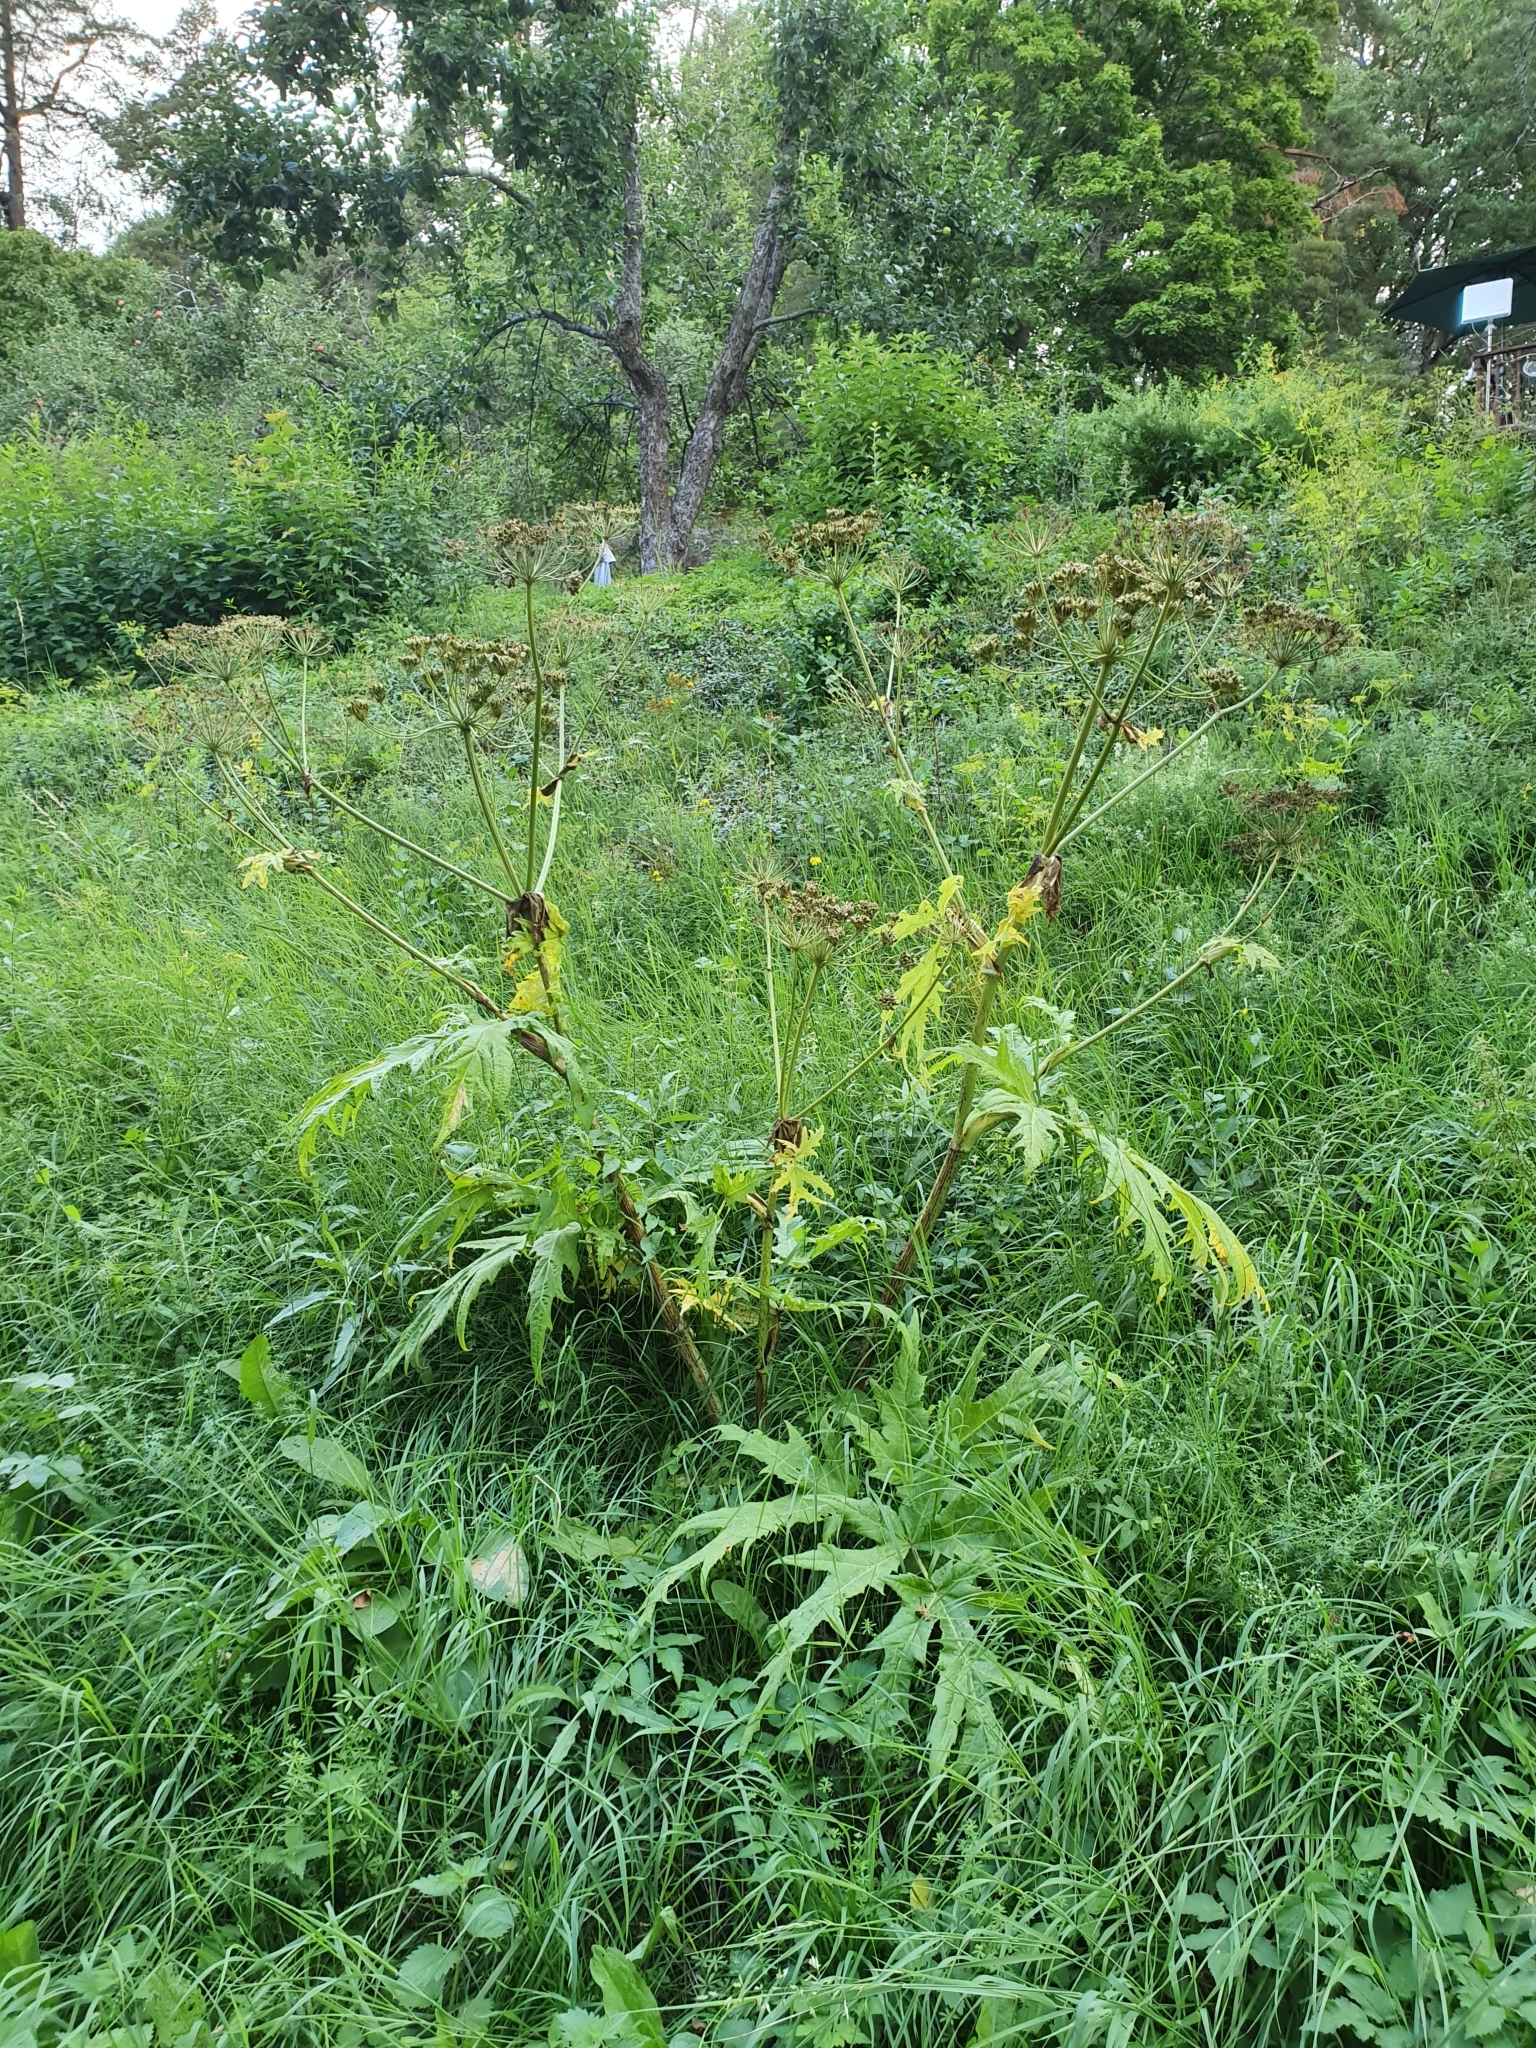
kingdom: Plantae
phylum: Tracheophyta
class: Magnoliopsida
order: Apiales
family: Apiaceae
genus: Heracleum
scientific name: Heracleum mantegazzianum
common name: Giant hogweed
